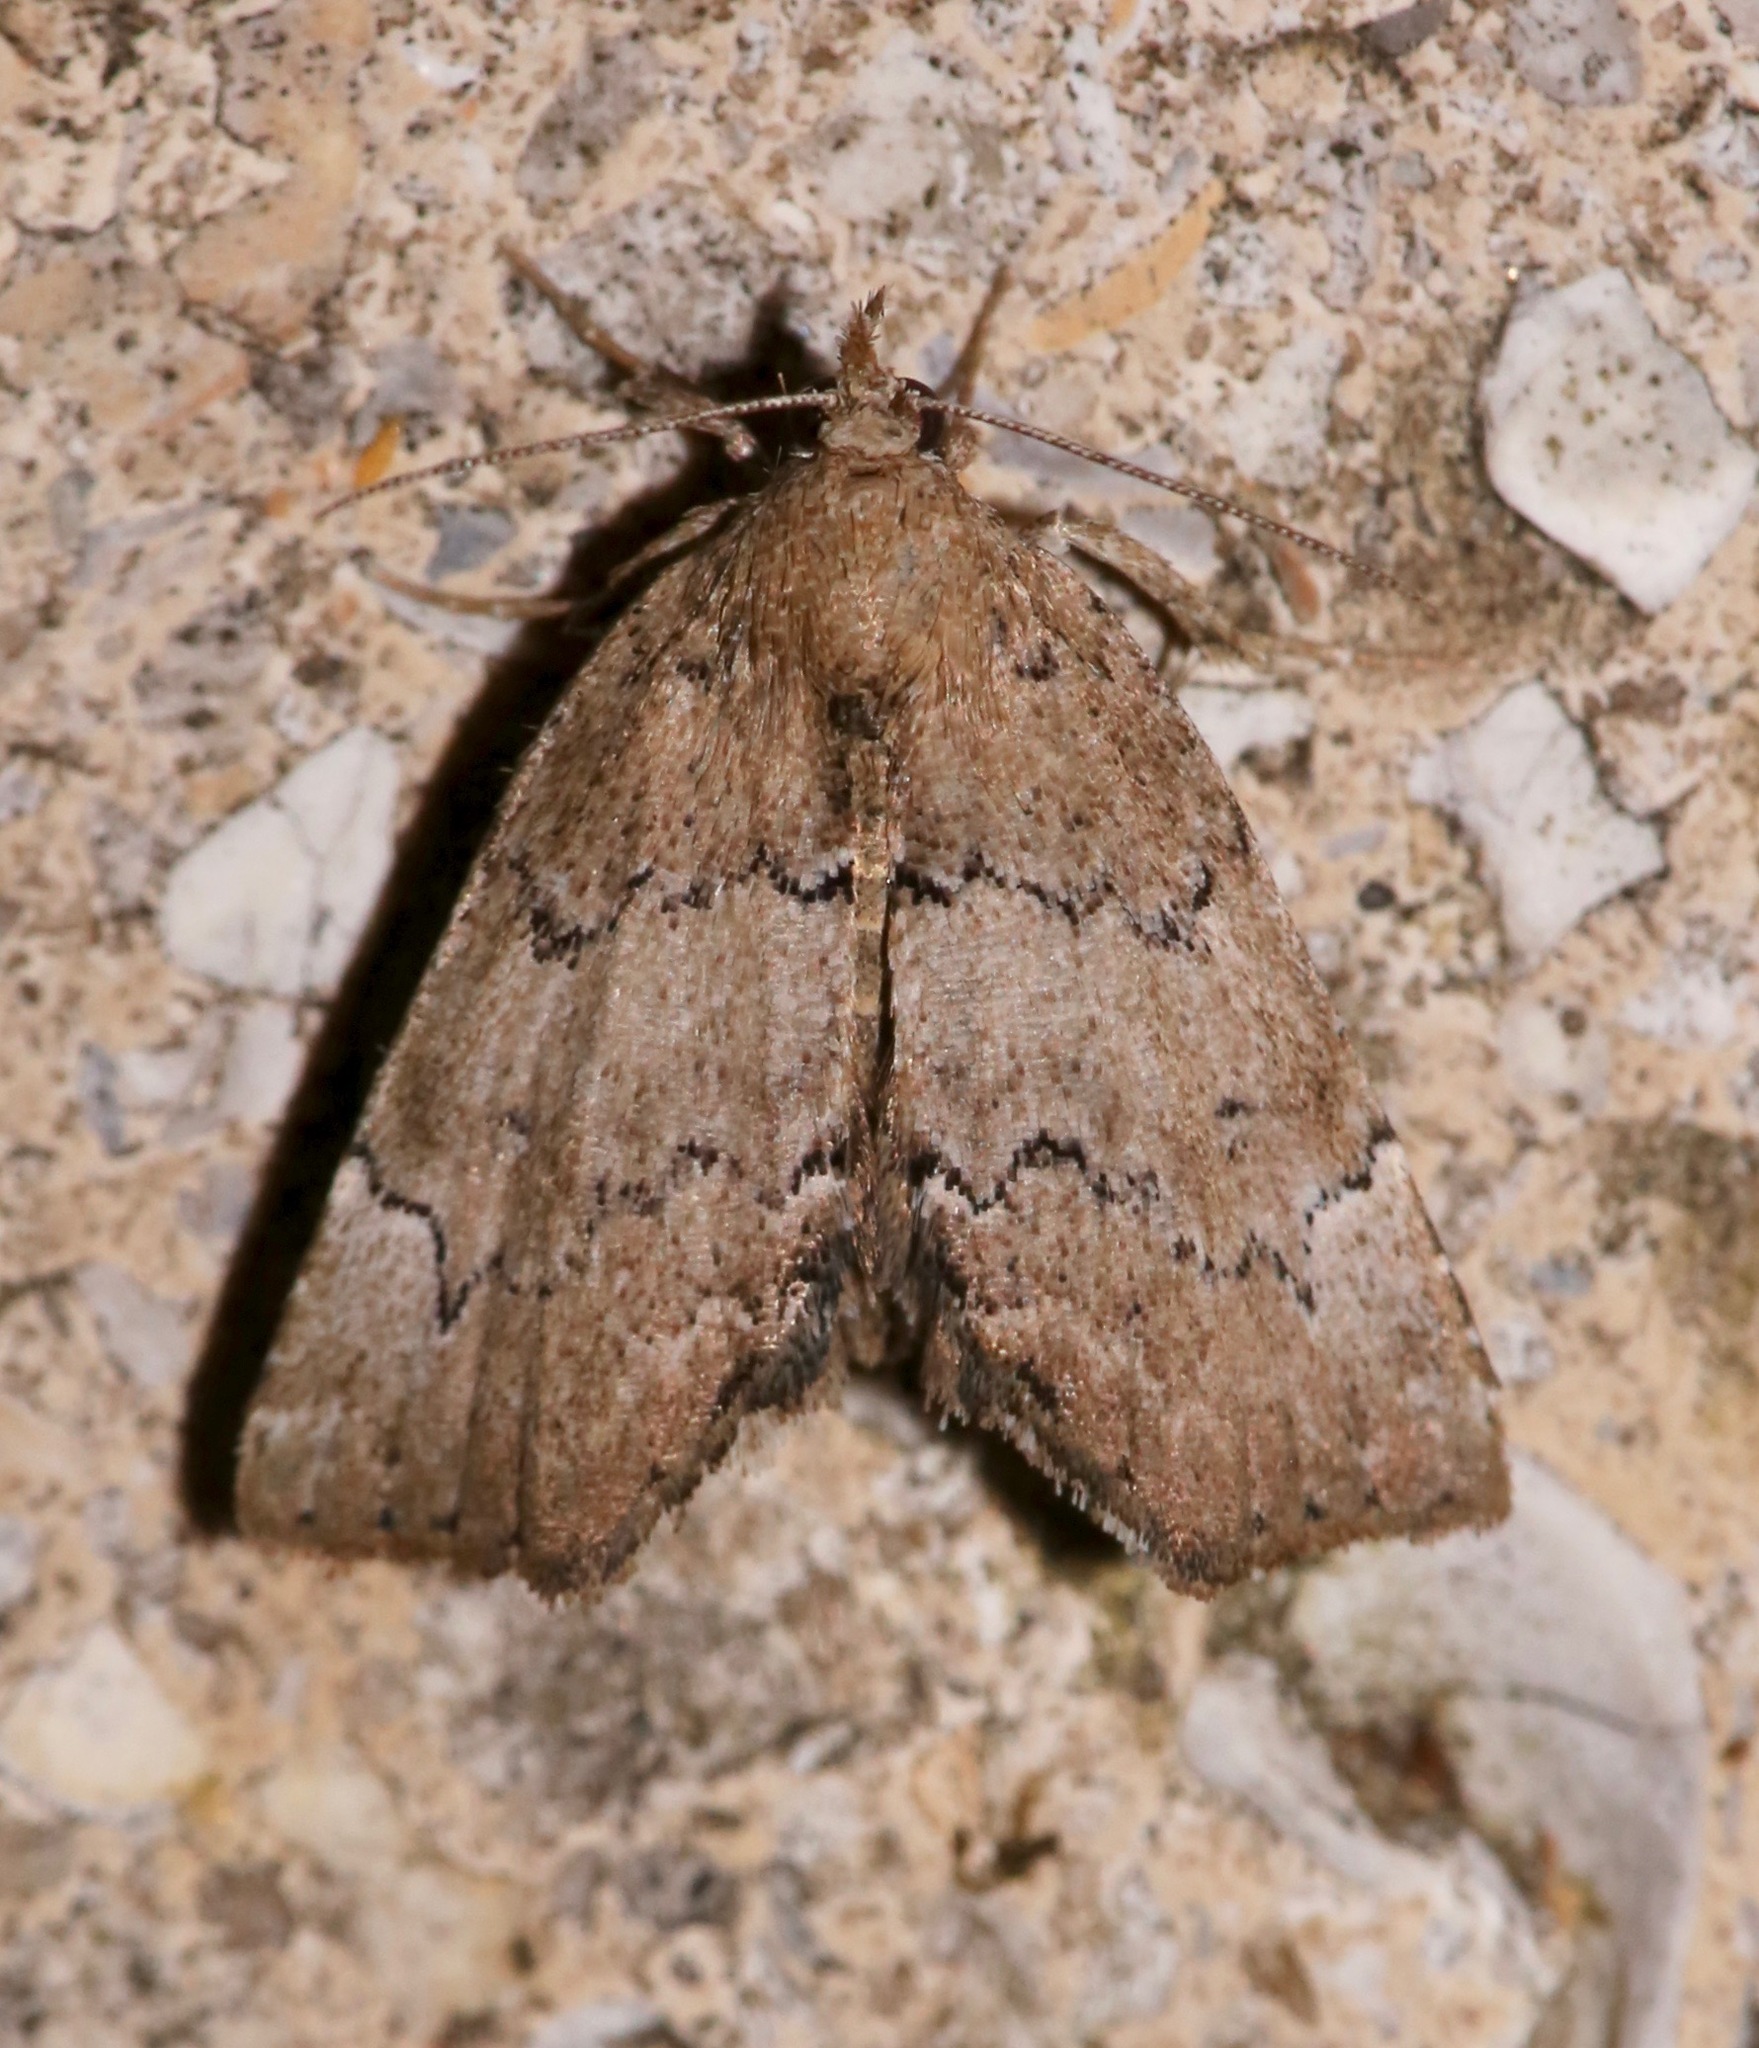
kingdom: Animalia
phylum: Arthropoda
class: Insecta
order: Lepidoptera
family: Erebidae
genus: Cutina
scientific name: Cutina aluticolor
